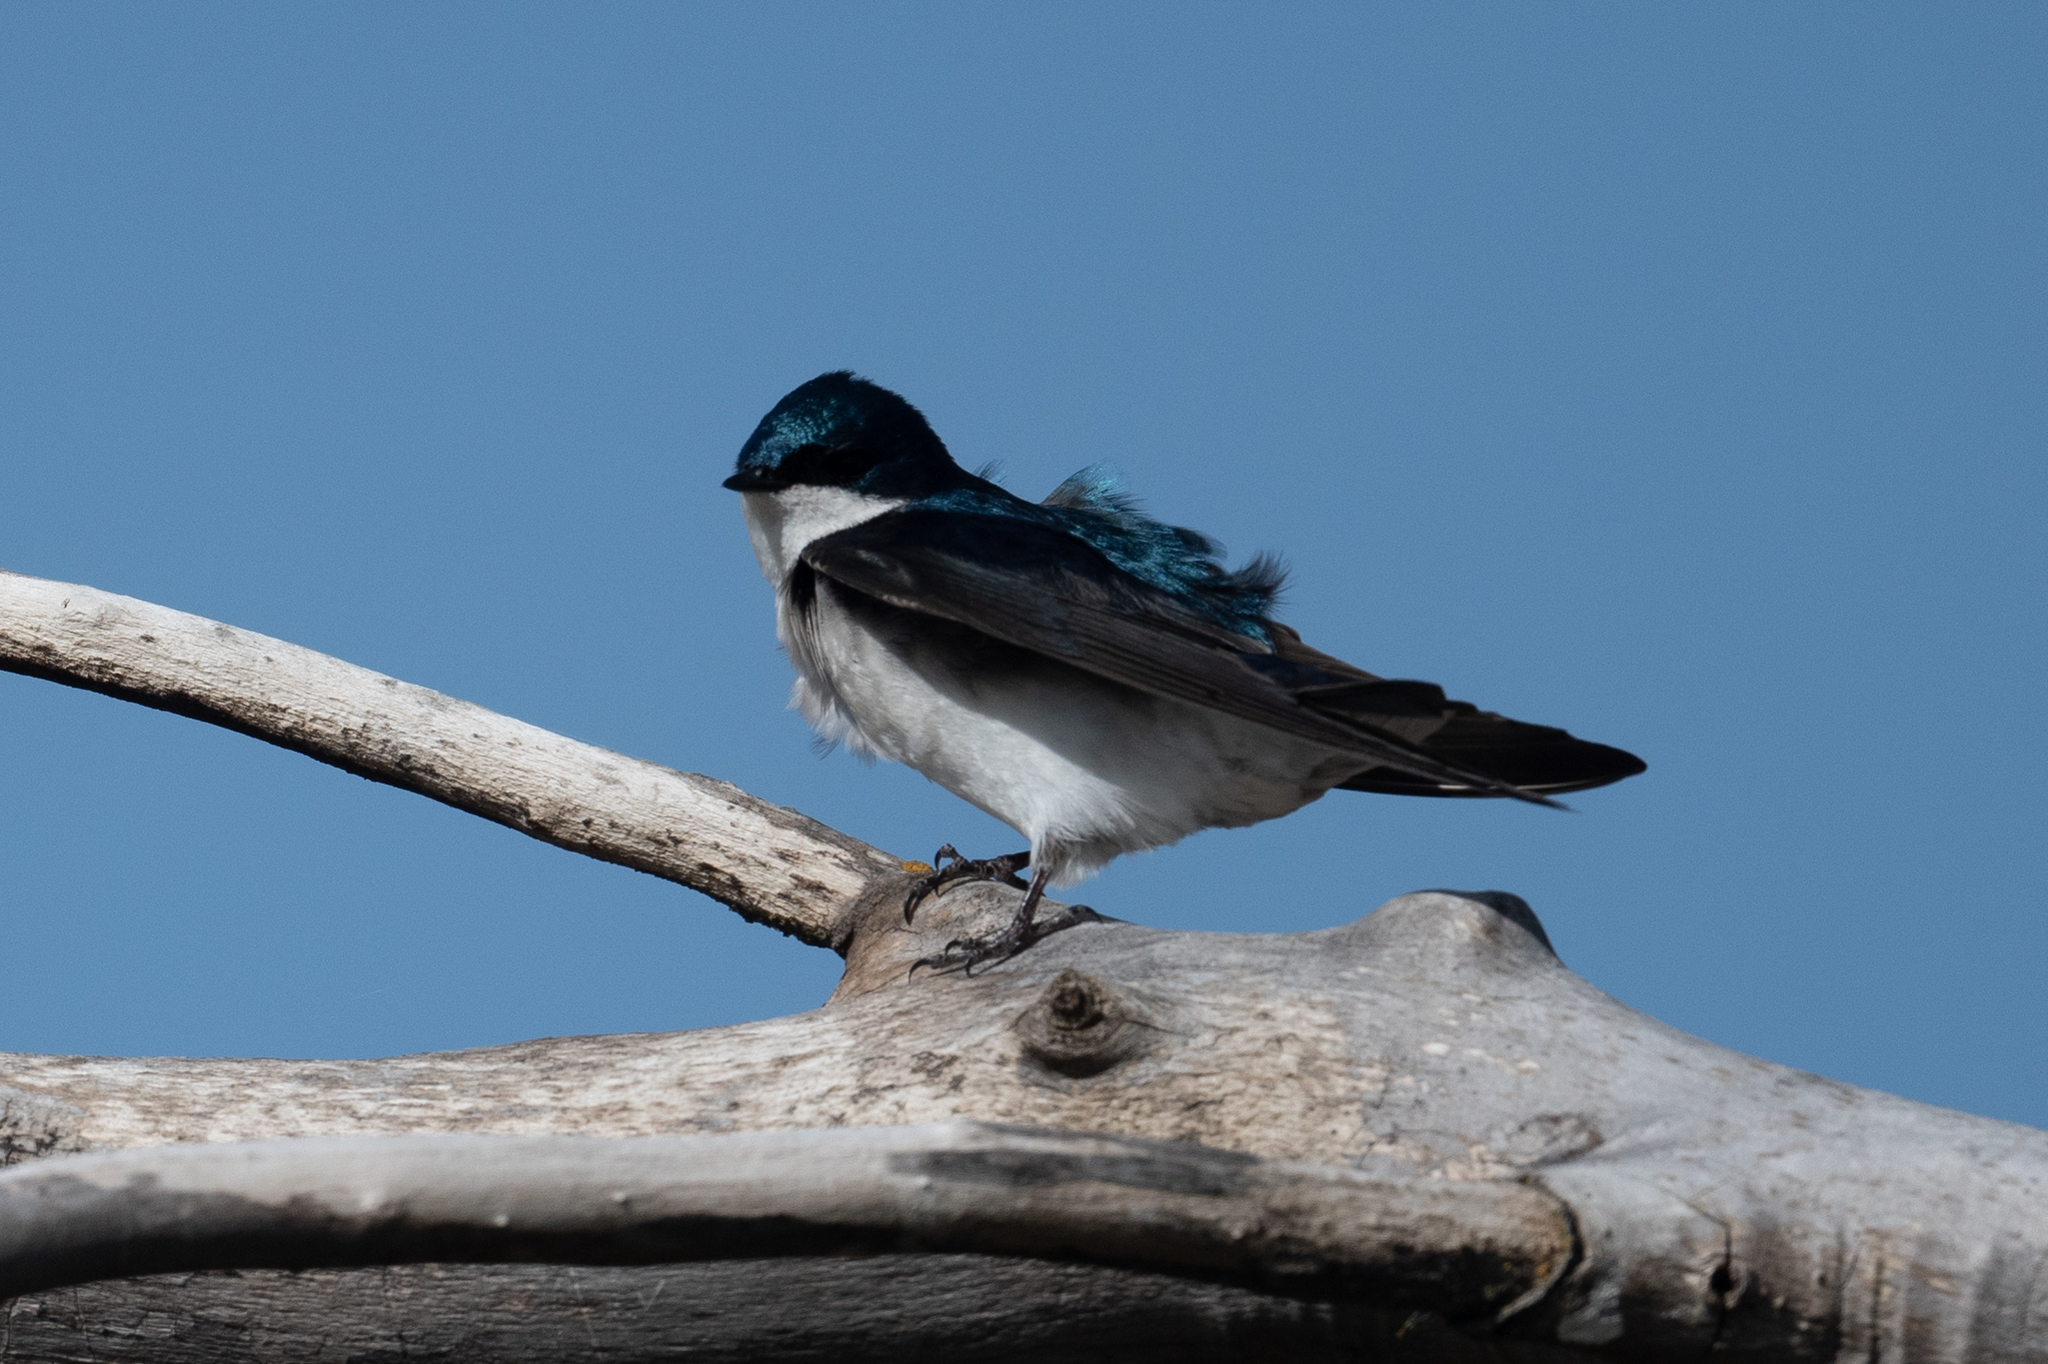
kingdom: Animalia
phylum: Chordata
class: Aves
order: Passeriformes
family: Hirundinidae
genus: Tachycineta
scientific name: Tachycineta bicolor
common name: Tree swallow
